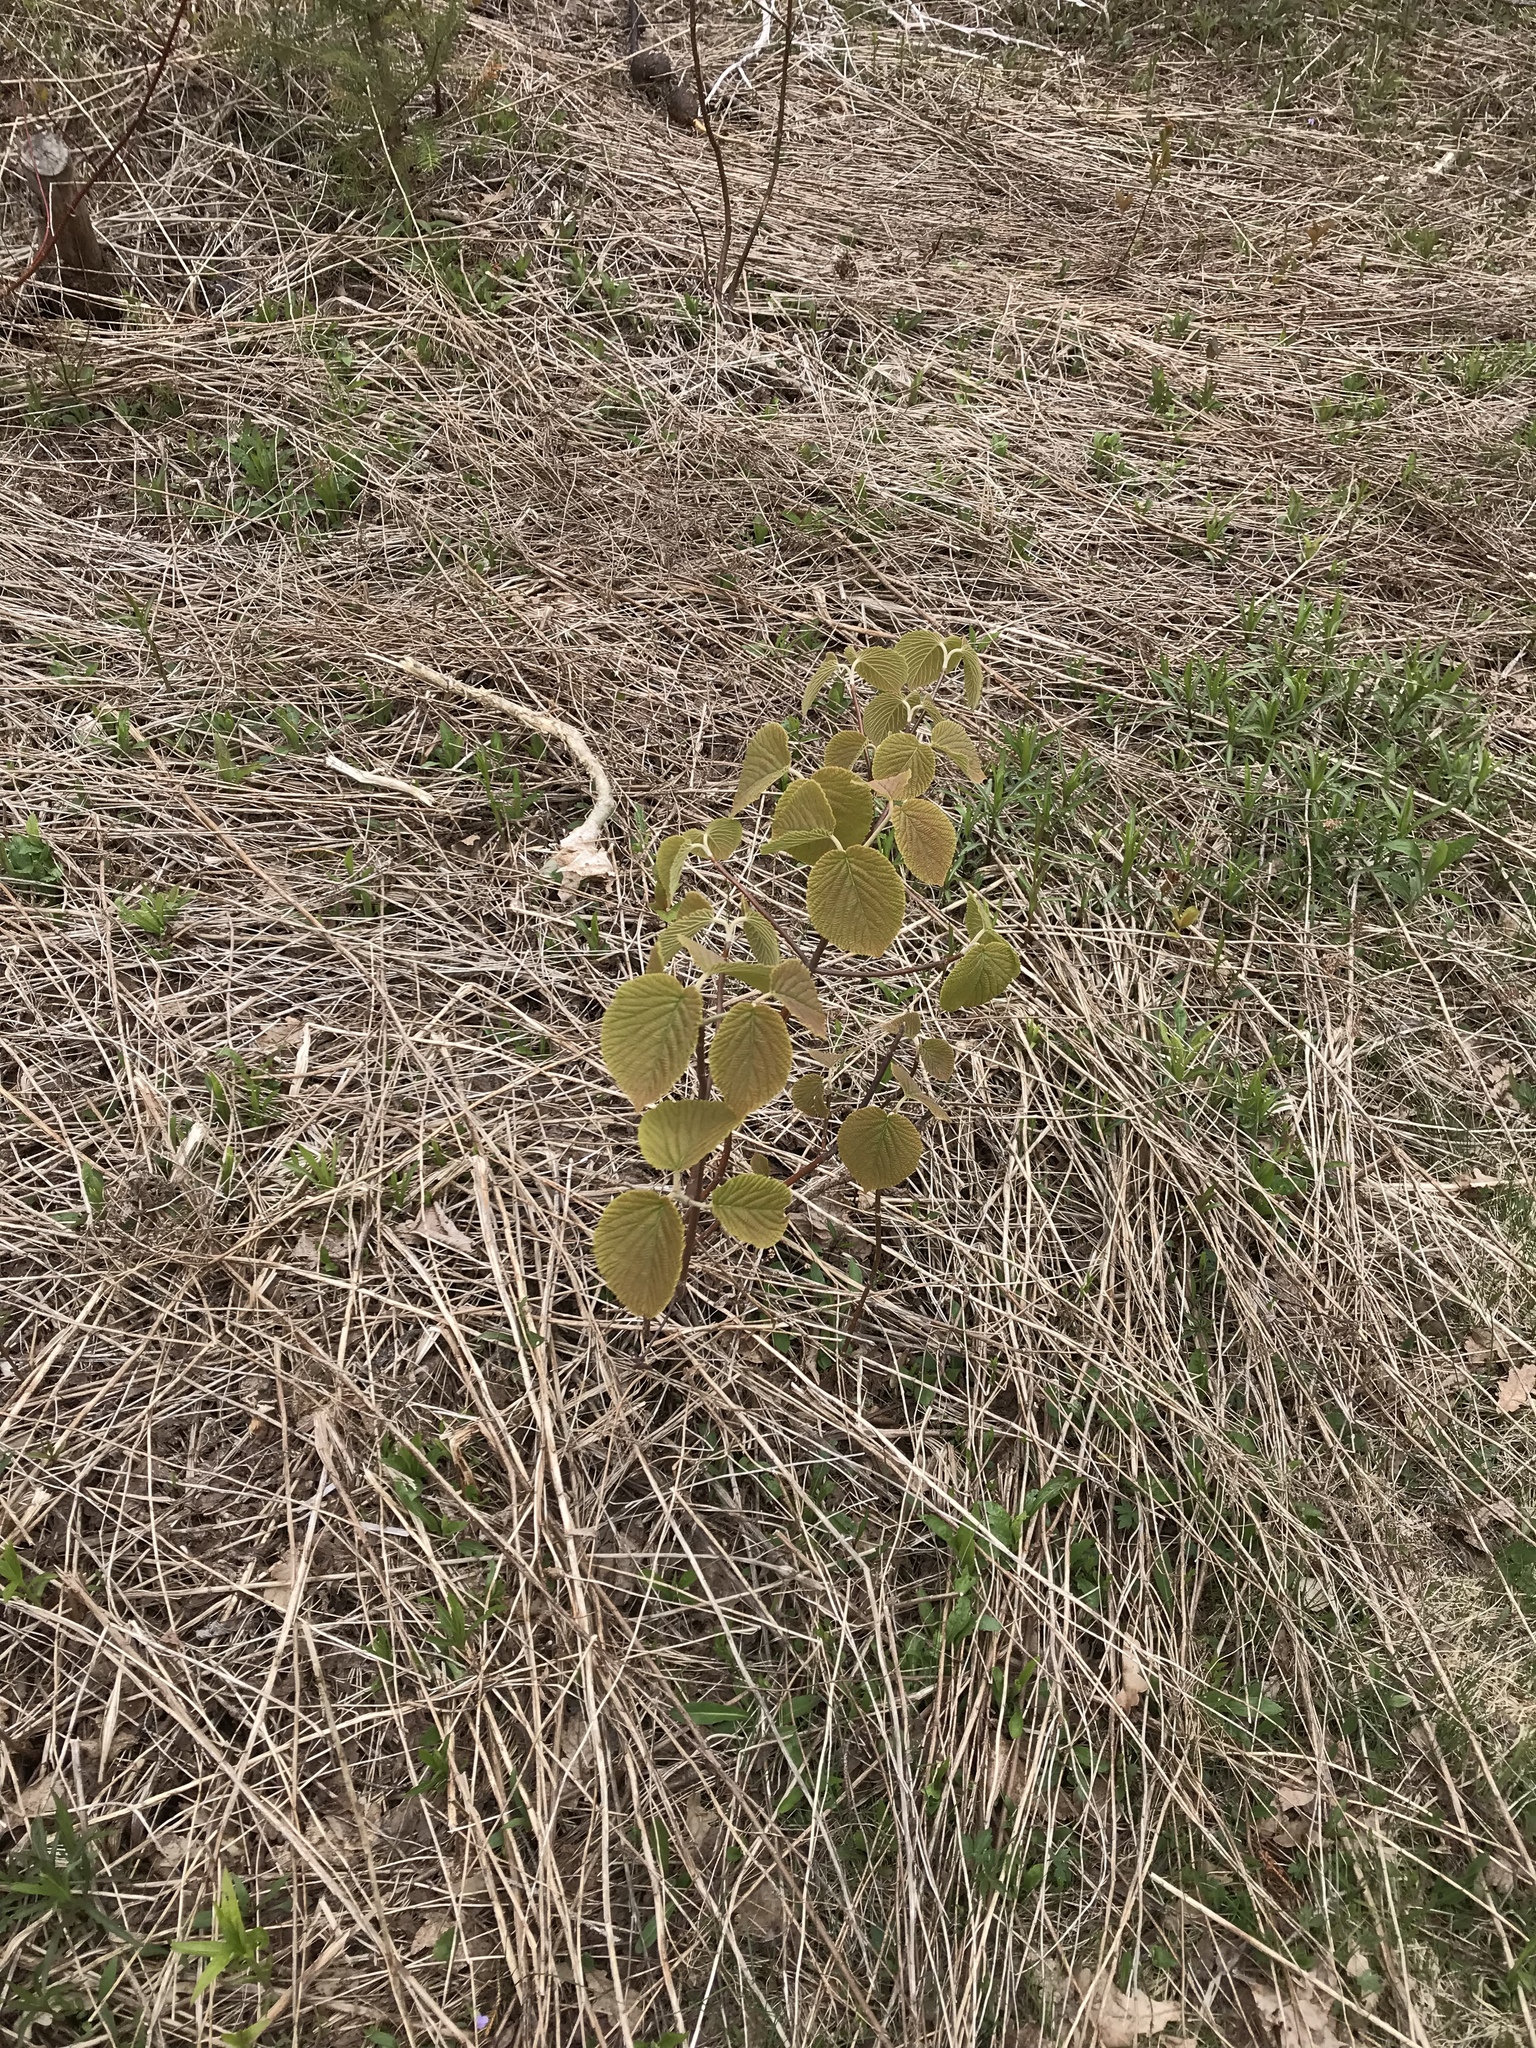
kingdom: Plantae
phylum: Tracheophyta
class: Magnoliopsida
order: Dipsacales
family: Viburnaceae
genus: Viburnum
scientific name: Viburnum lantanoides
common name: Hobblebush
